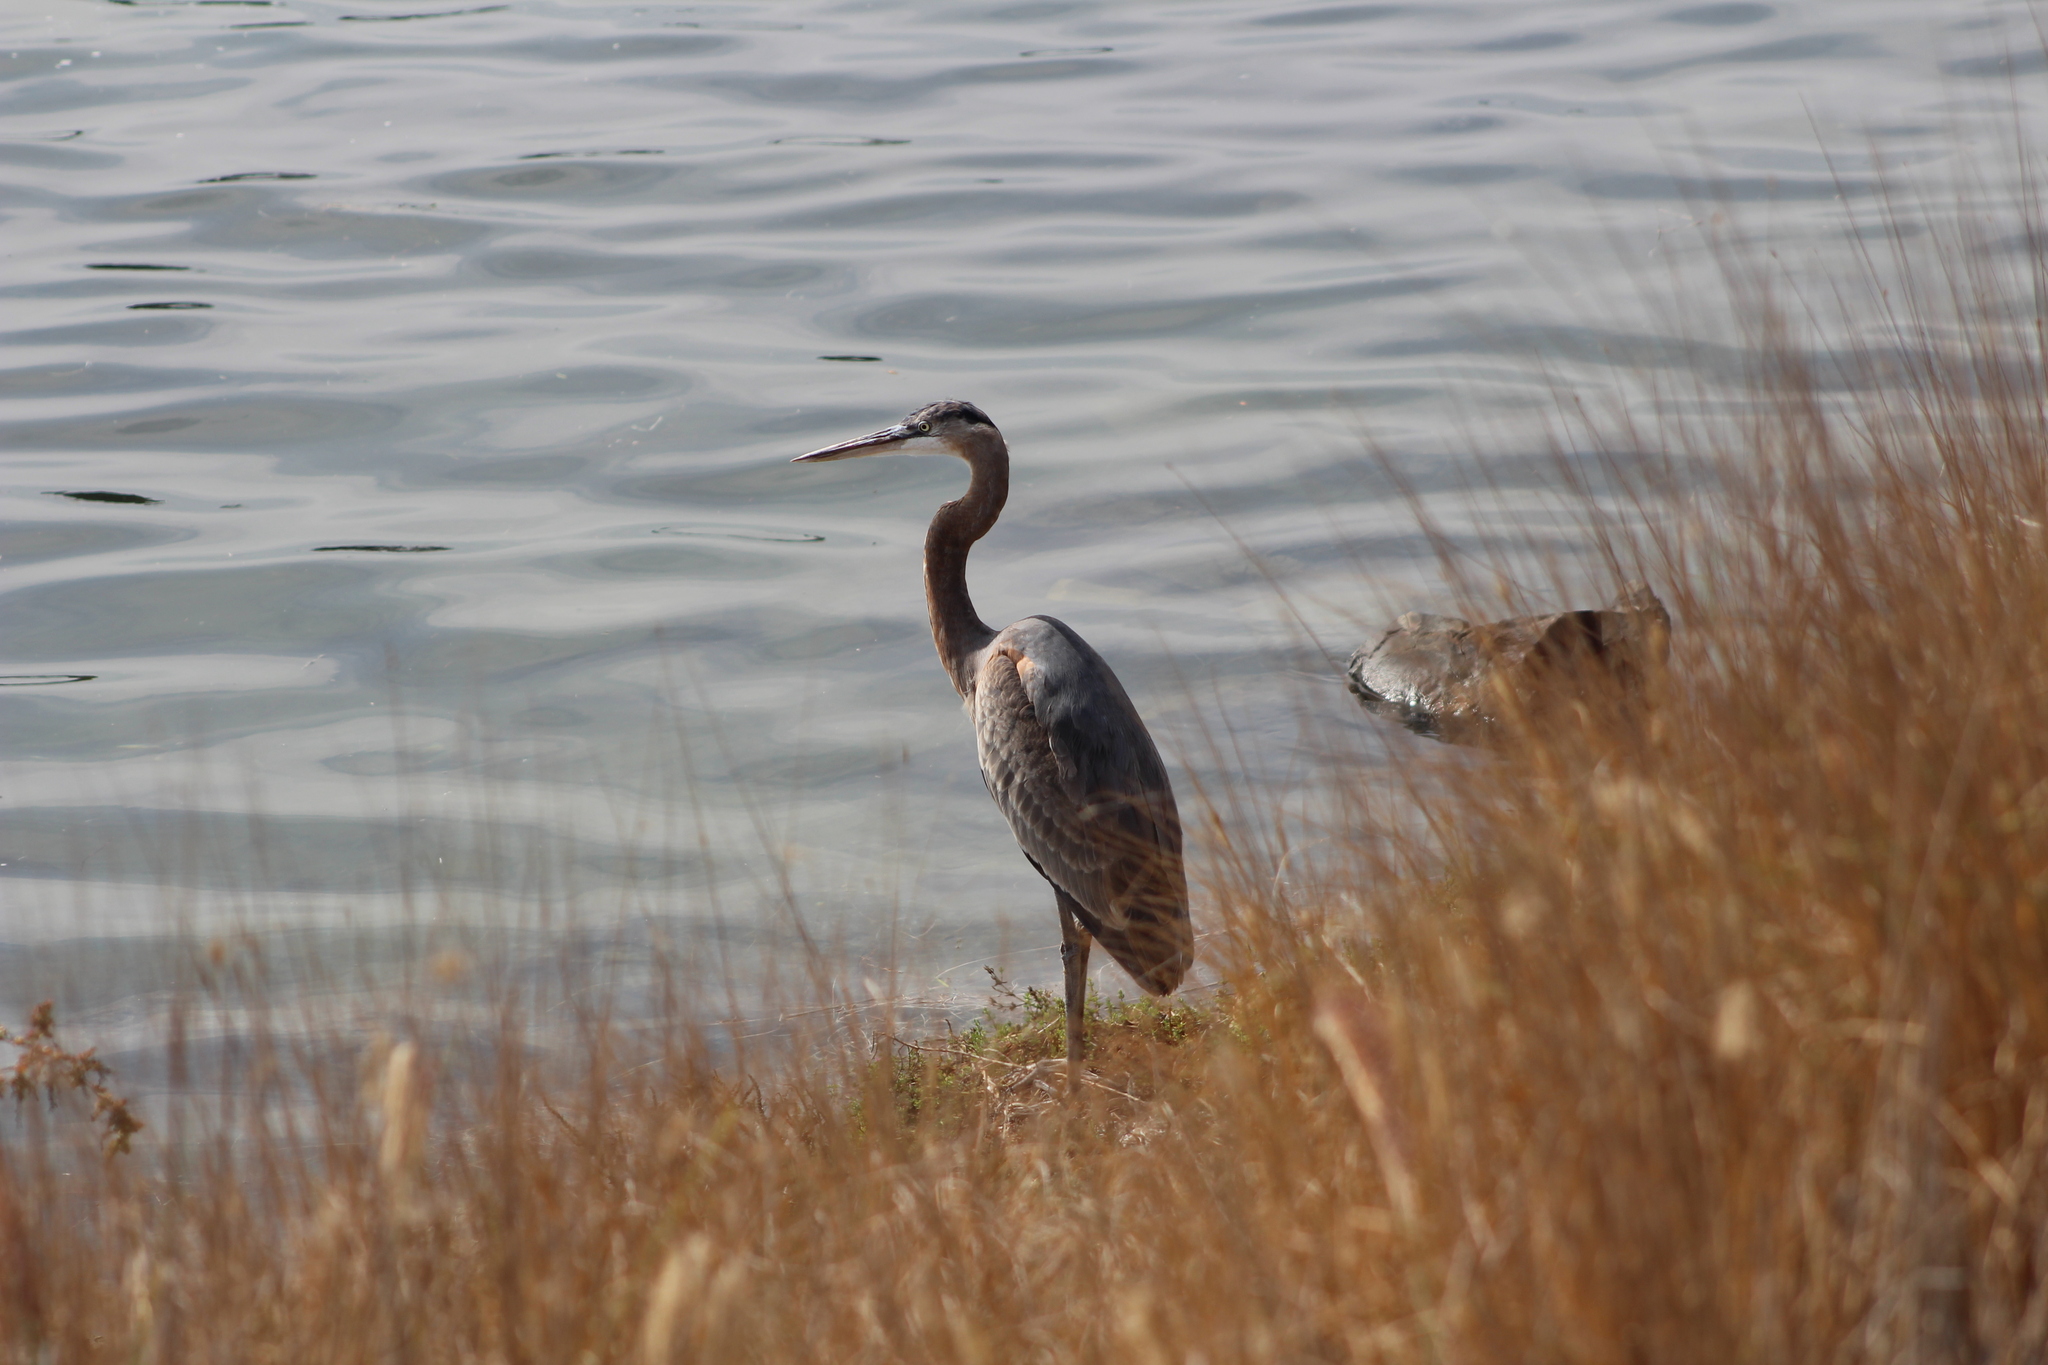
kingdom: Animalia
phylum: Chordata
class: Aves
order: Pelecaniformes
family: Ardeidae
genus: Ardea
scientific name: Ardea herodias
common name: Great blue heron
